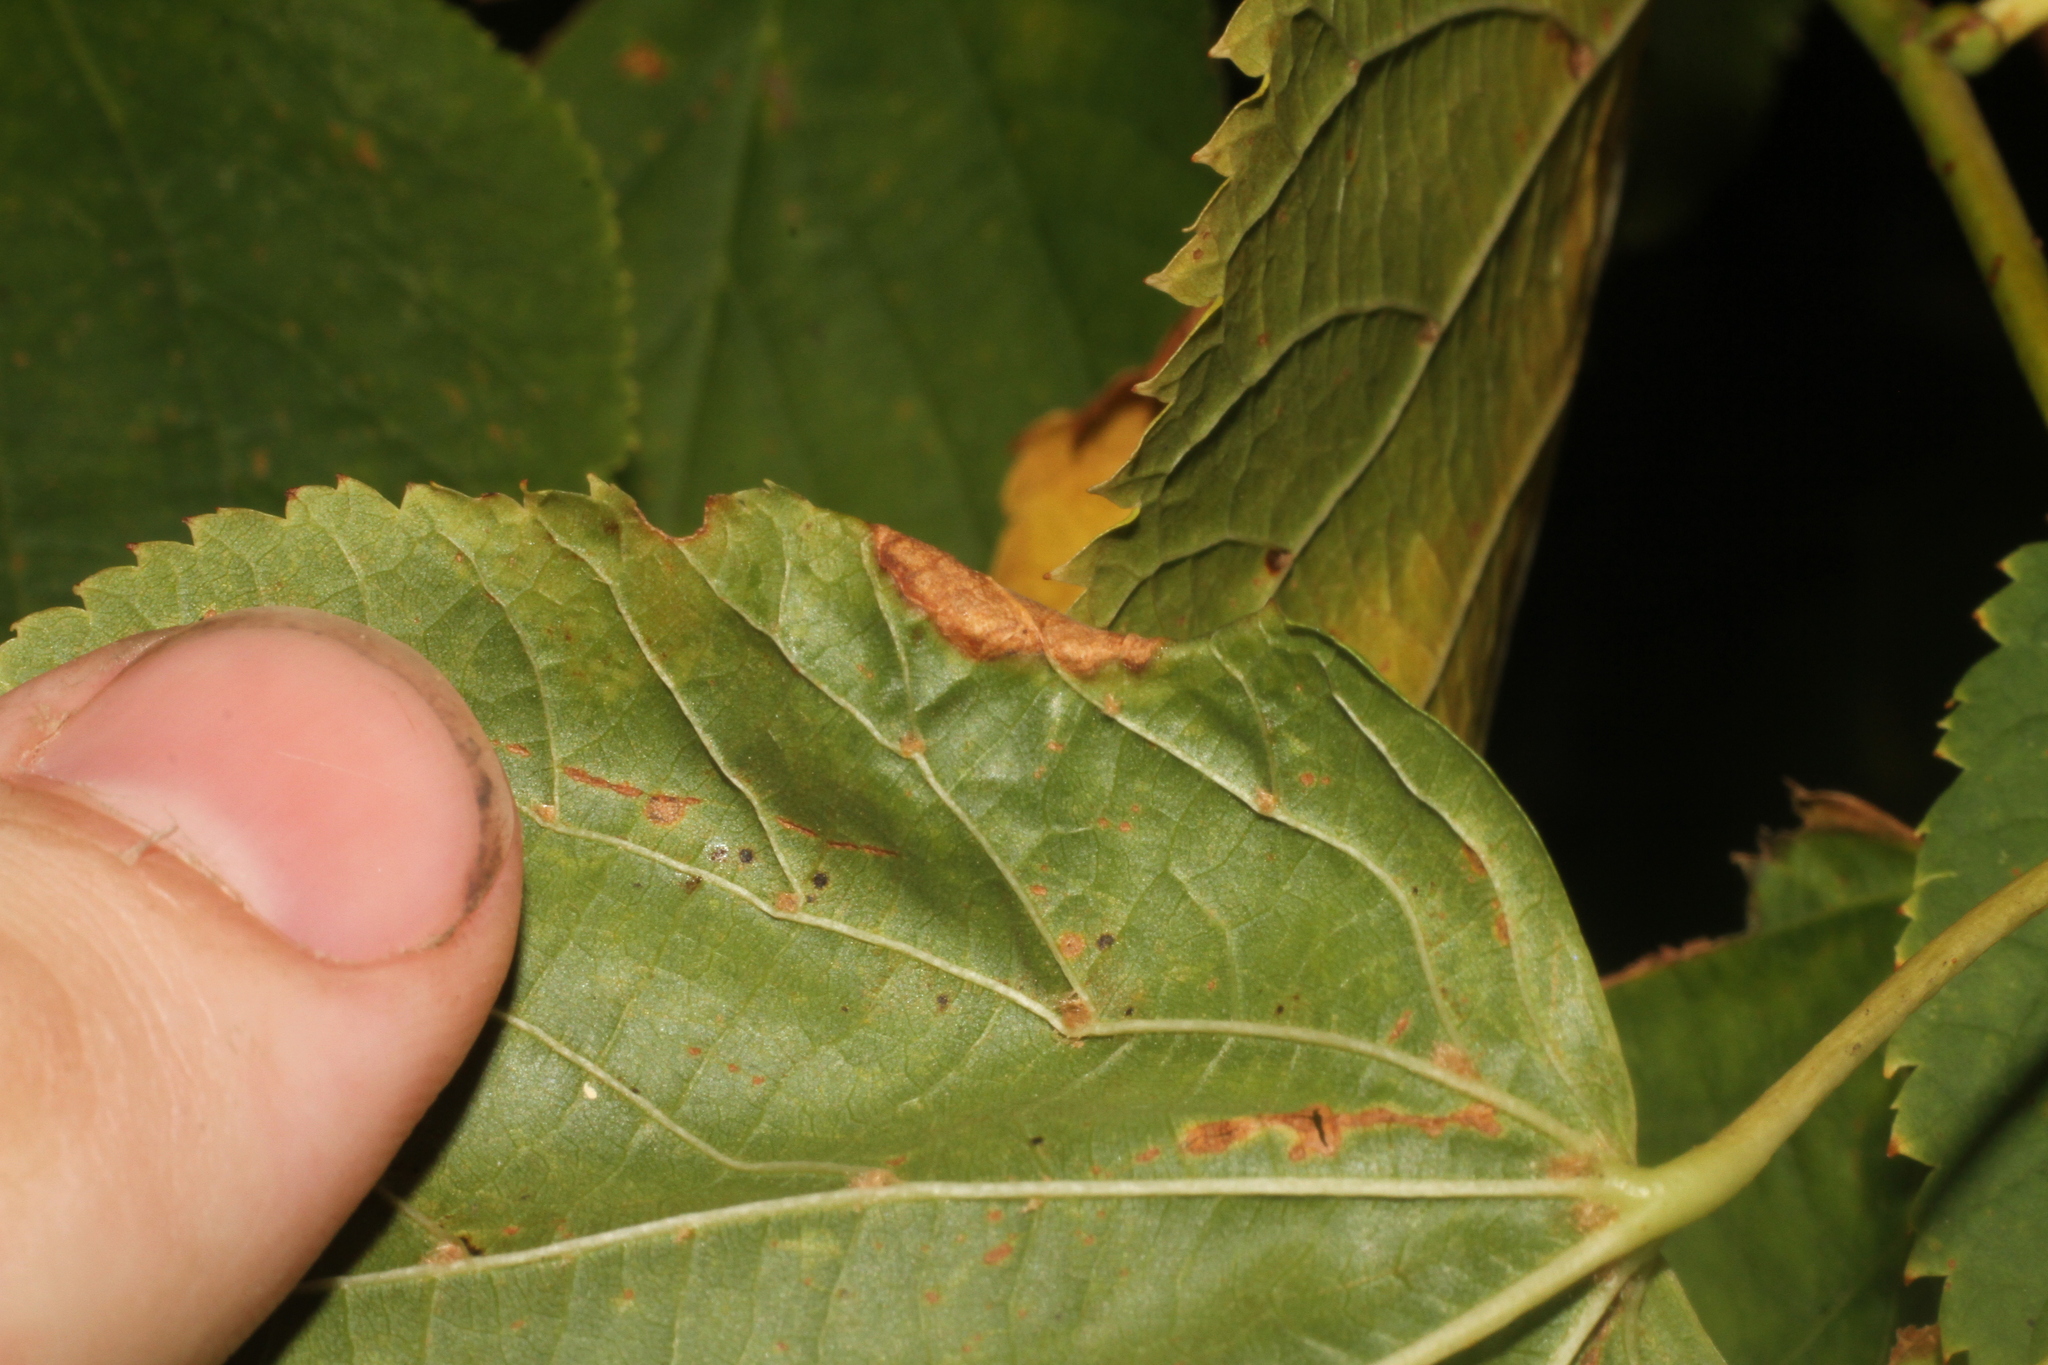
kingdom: Animalia
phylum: Arthropoda
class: Insecta
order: Diptera
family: Cecidomyiidae
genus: Dasineura
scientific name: Dasineura tiliae
